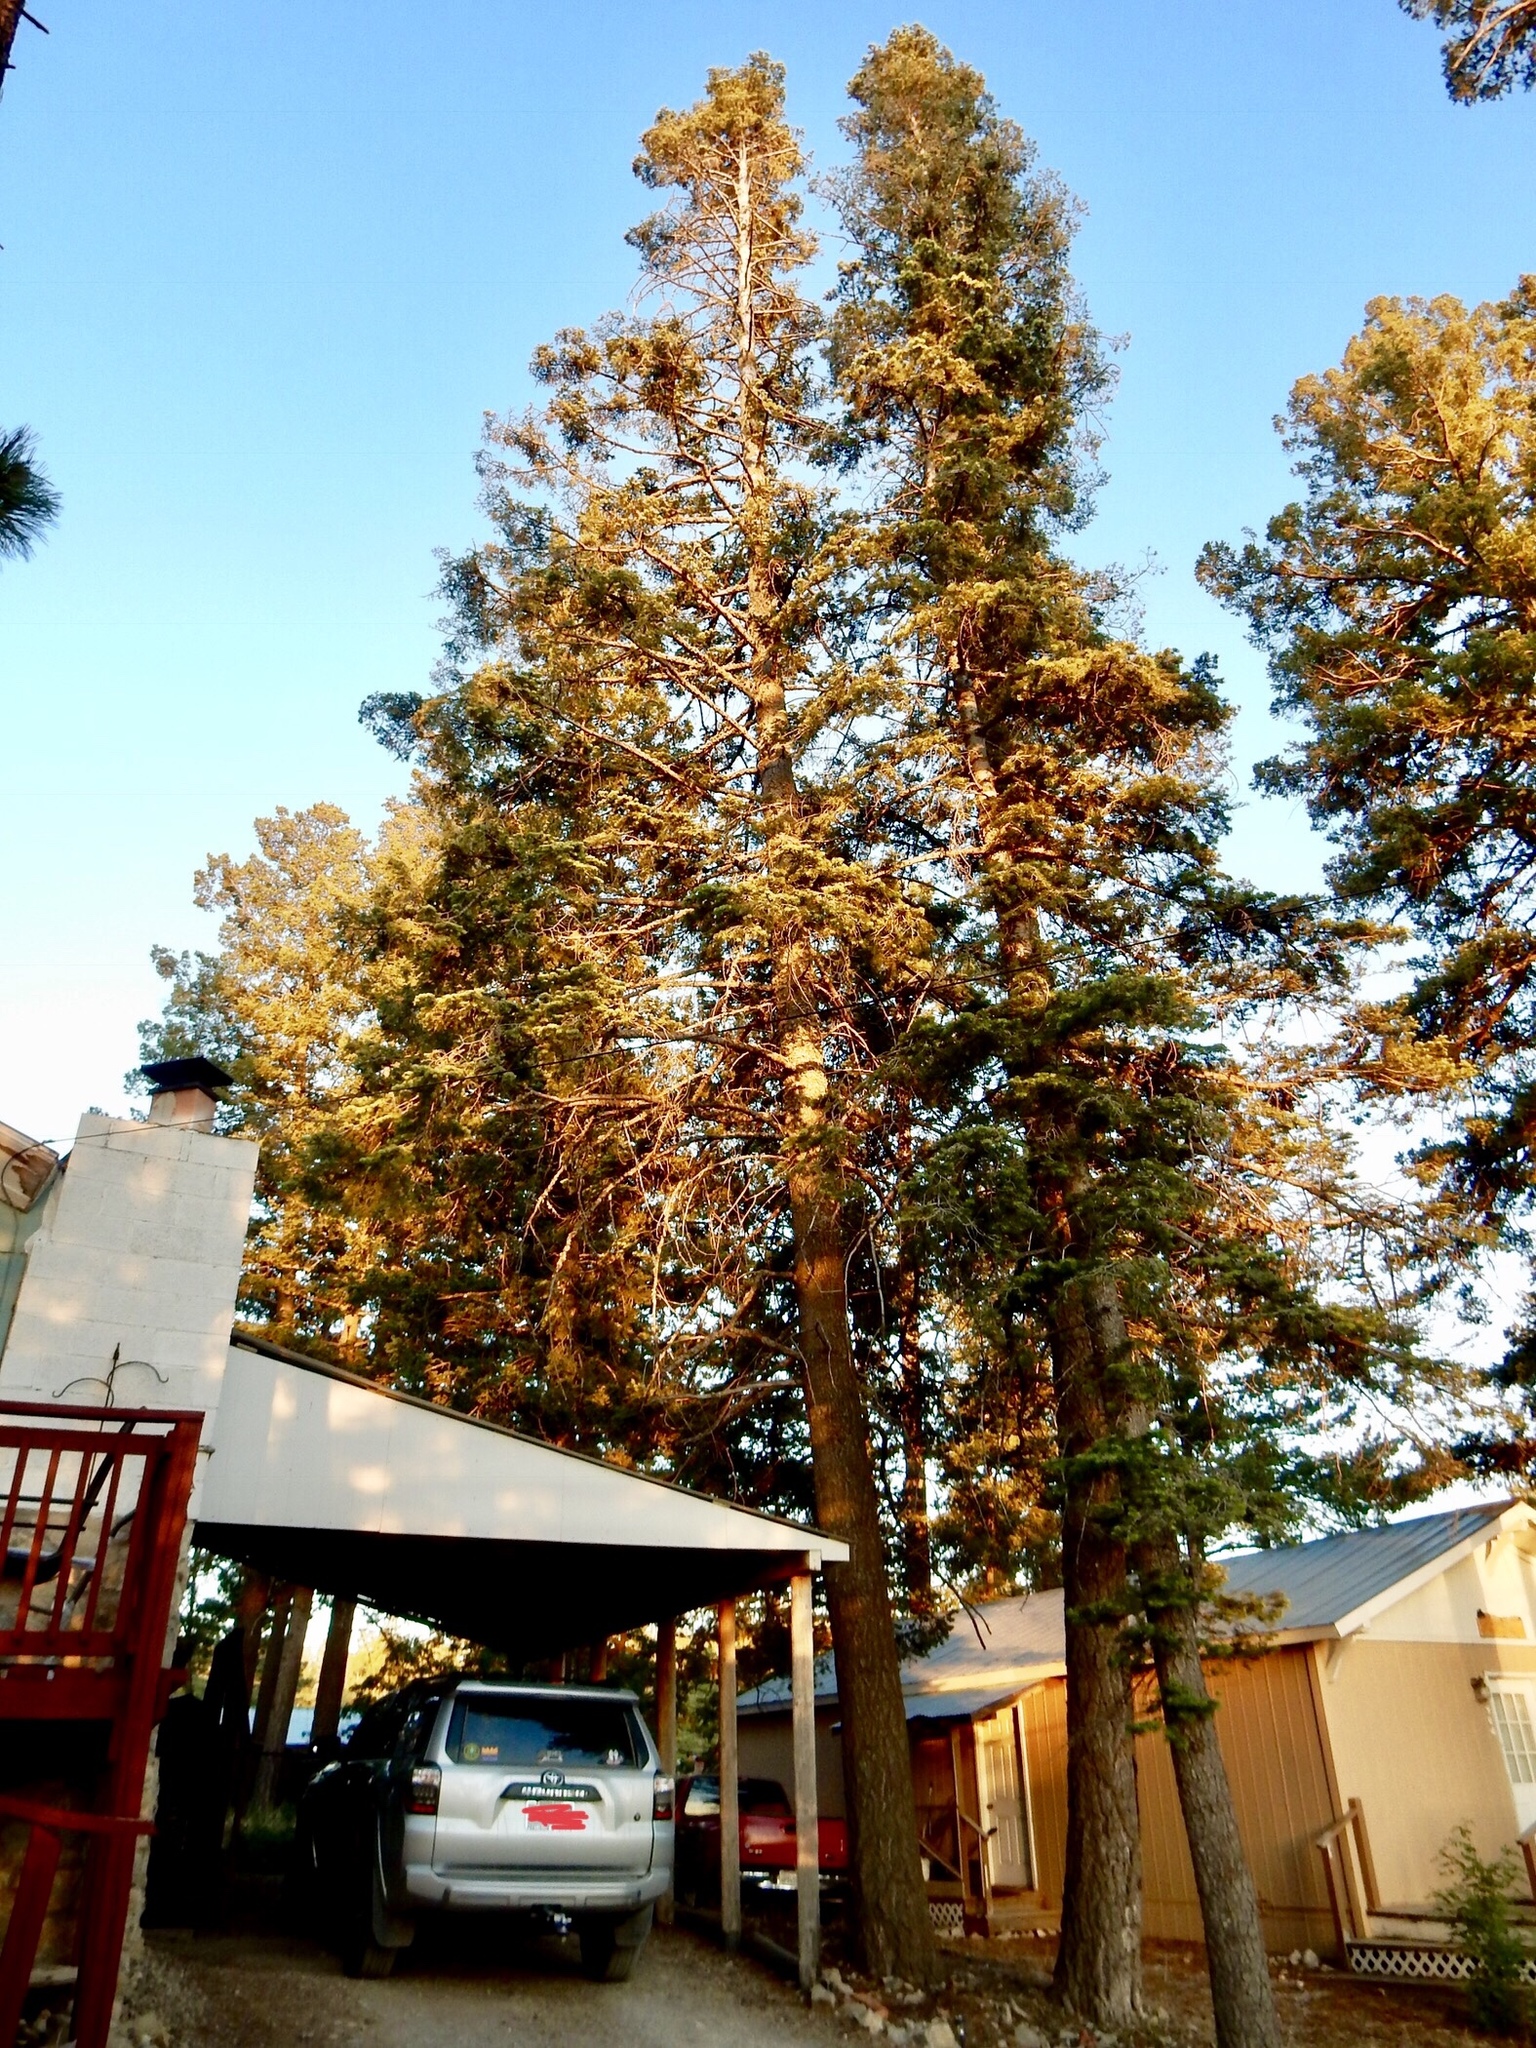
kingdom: Plantae
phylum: Tracheophyta
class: Pinopsida
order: Pinales
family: Pinaceae
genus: Abies
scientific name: Abies concolor
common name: Colorado fir
